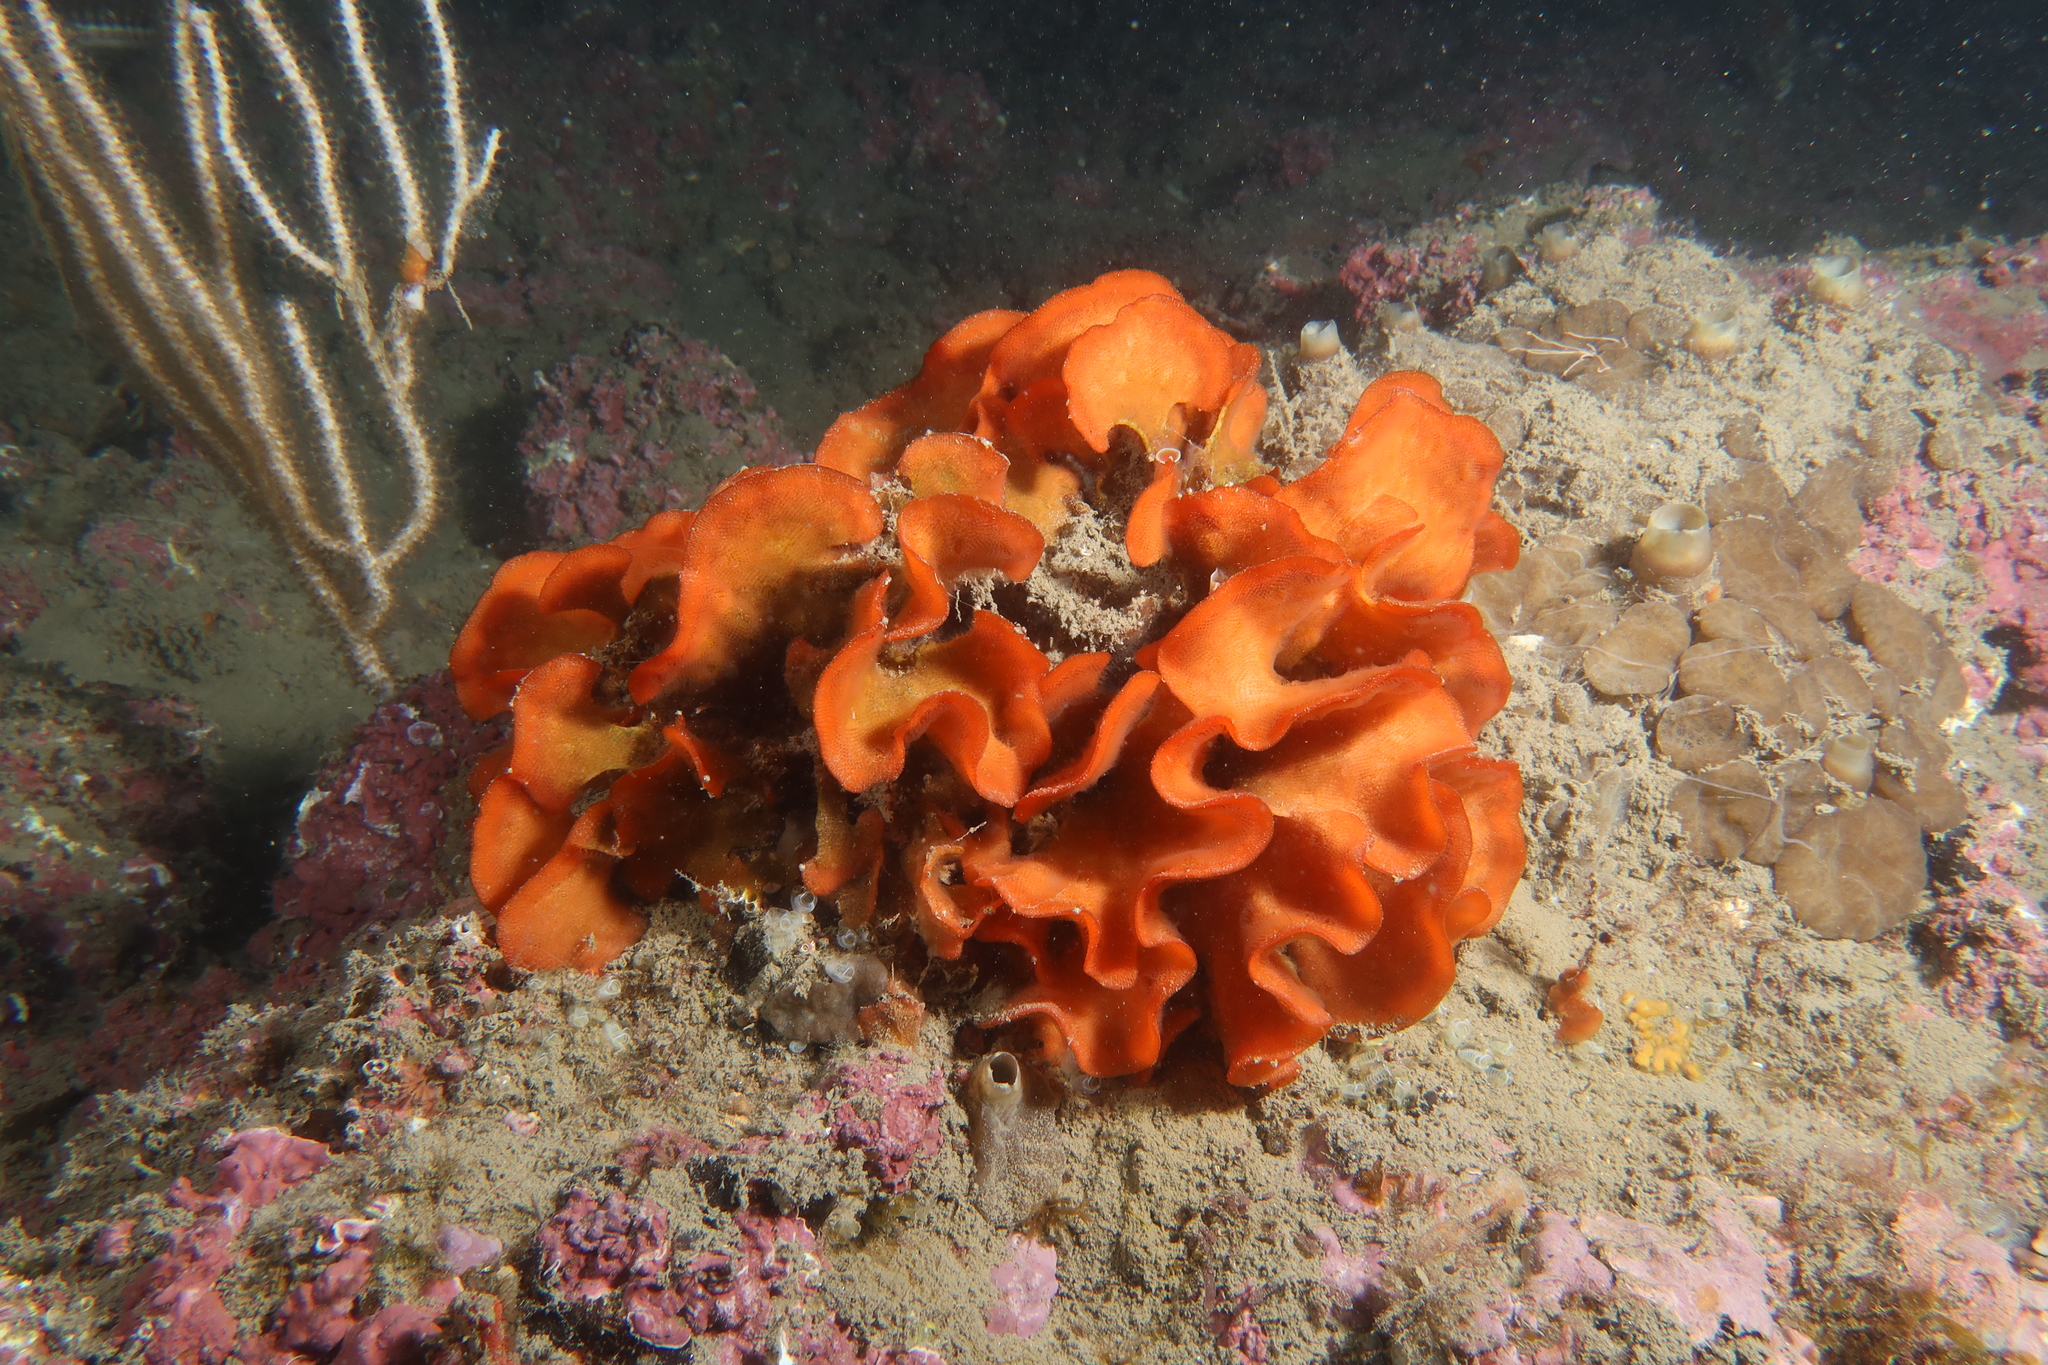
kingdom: Animalia
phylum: Bryozoa
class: Gymnolaemata
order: Cheilostomatida
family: Bitectiporidae
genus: Pentapora
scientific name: Pentapora fascialis
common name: Ross coral
